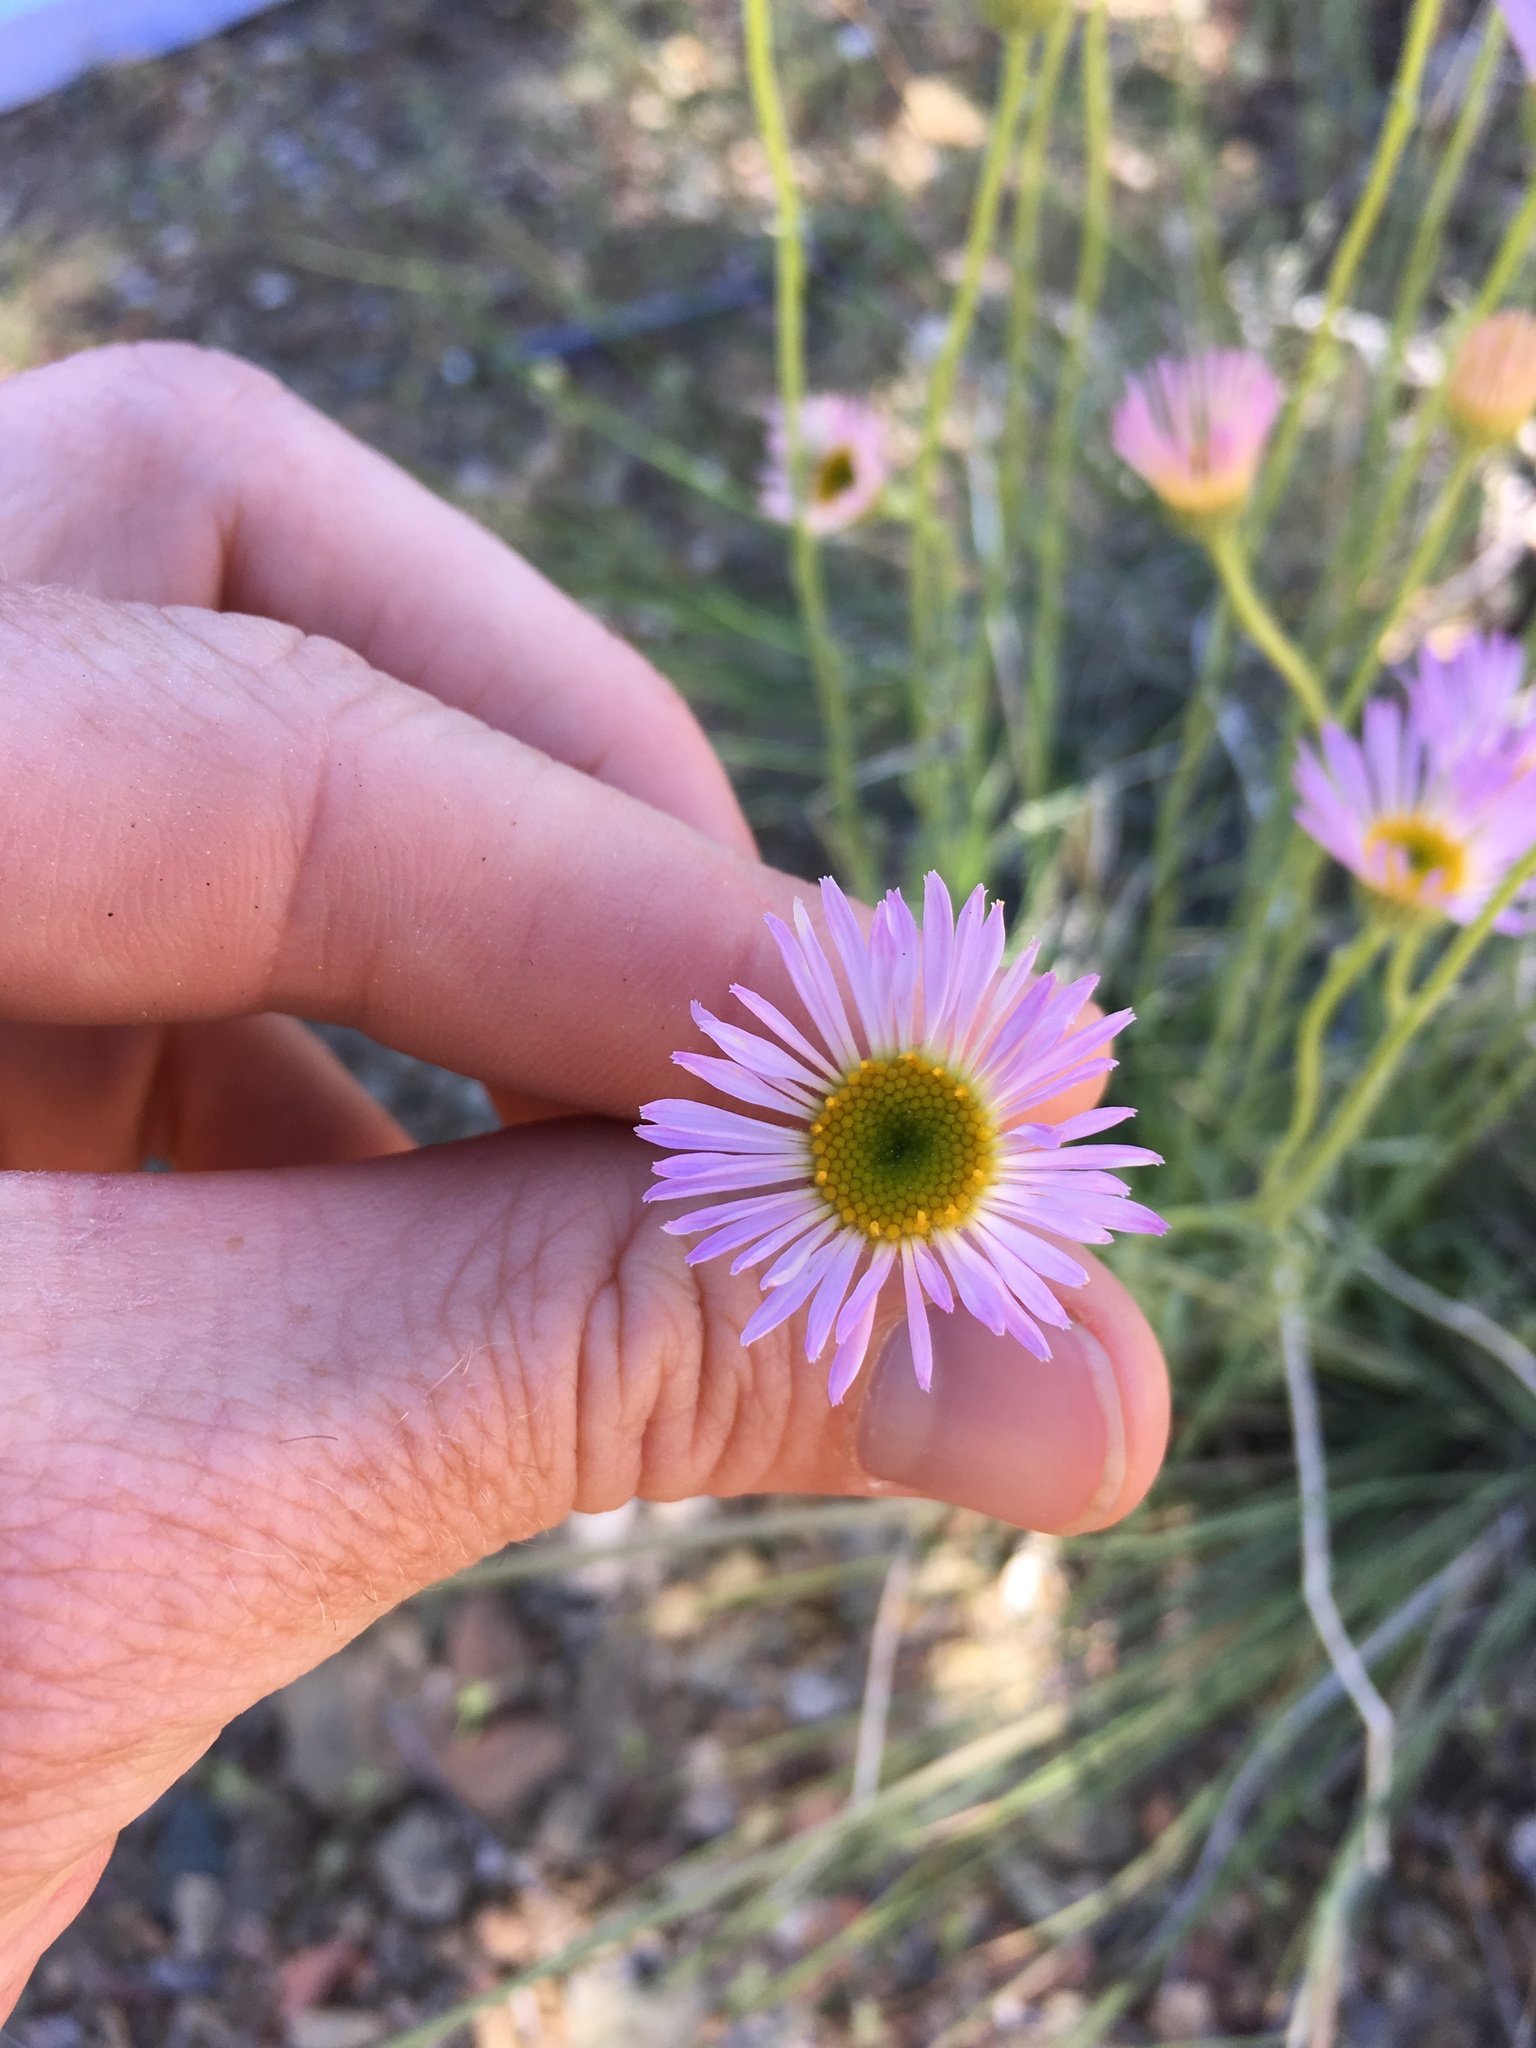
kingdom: Plantae
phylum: Tracheophyta
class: Magnoliopsida
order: Asterales
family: Asteraceae
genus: Erigeron
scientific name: Erigeron argentatus
